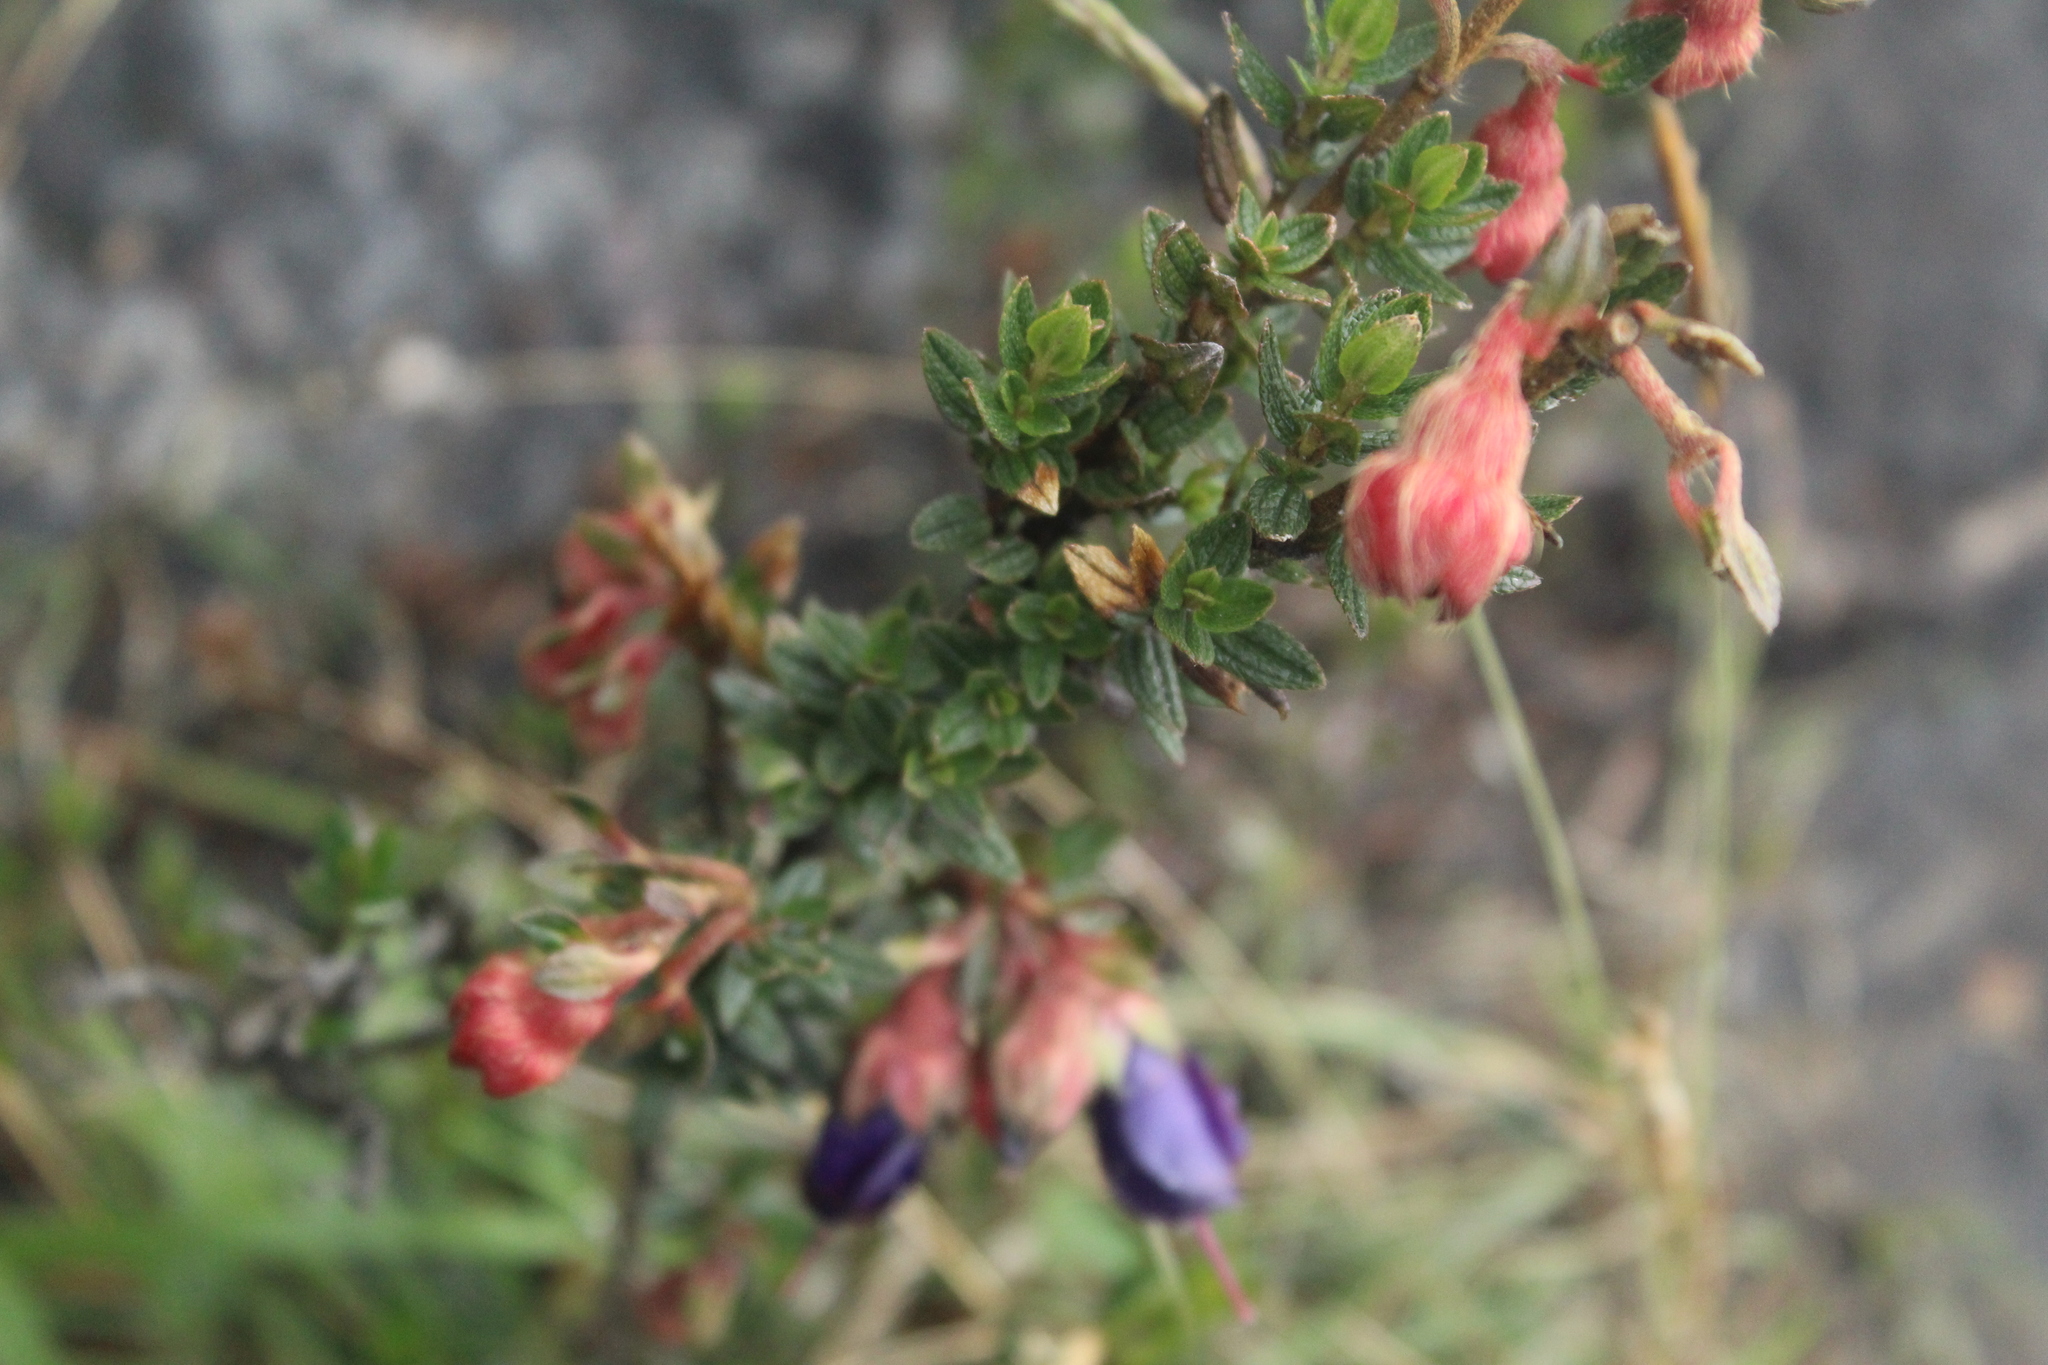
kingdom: Plantae
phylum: Tracheophyta
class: Magnoliopsida
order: Myrtales
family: Melastomataceae
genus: Brachyotum
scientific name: Brachyotum strigosum
